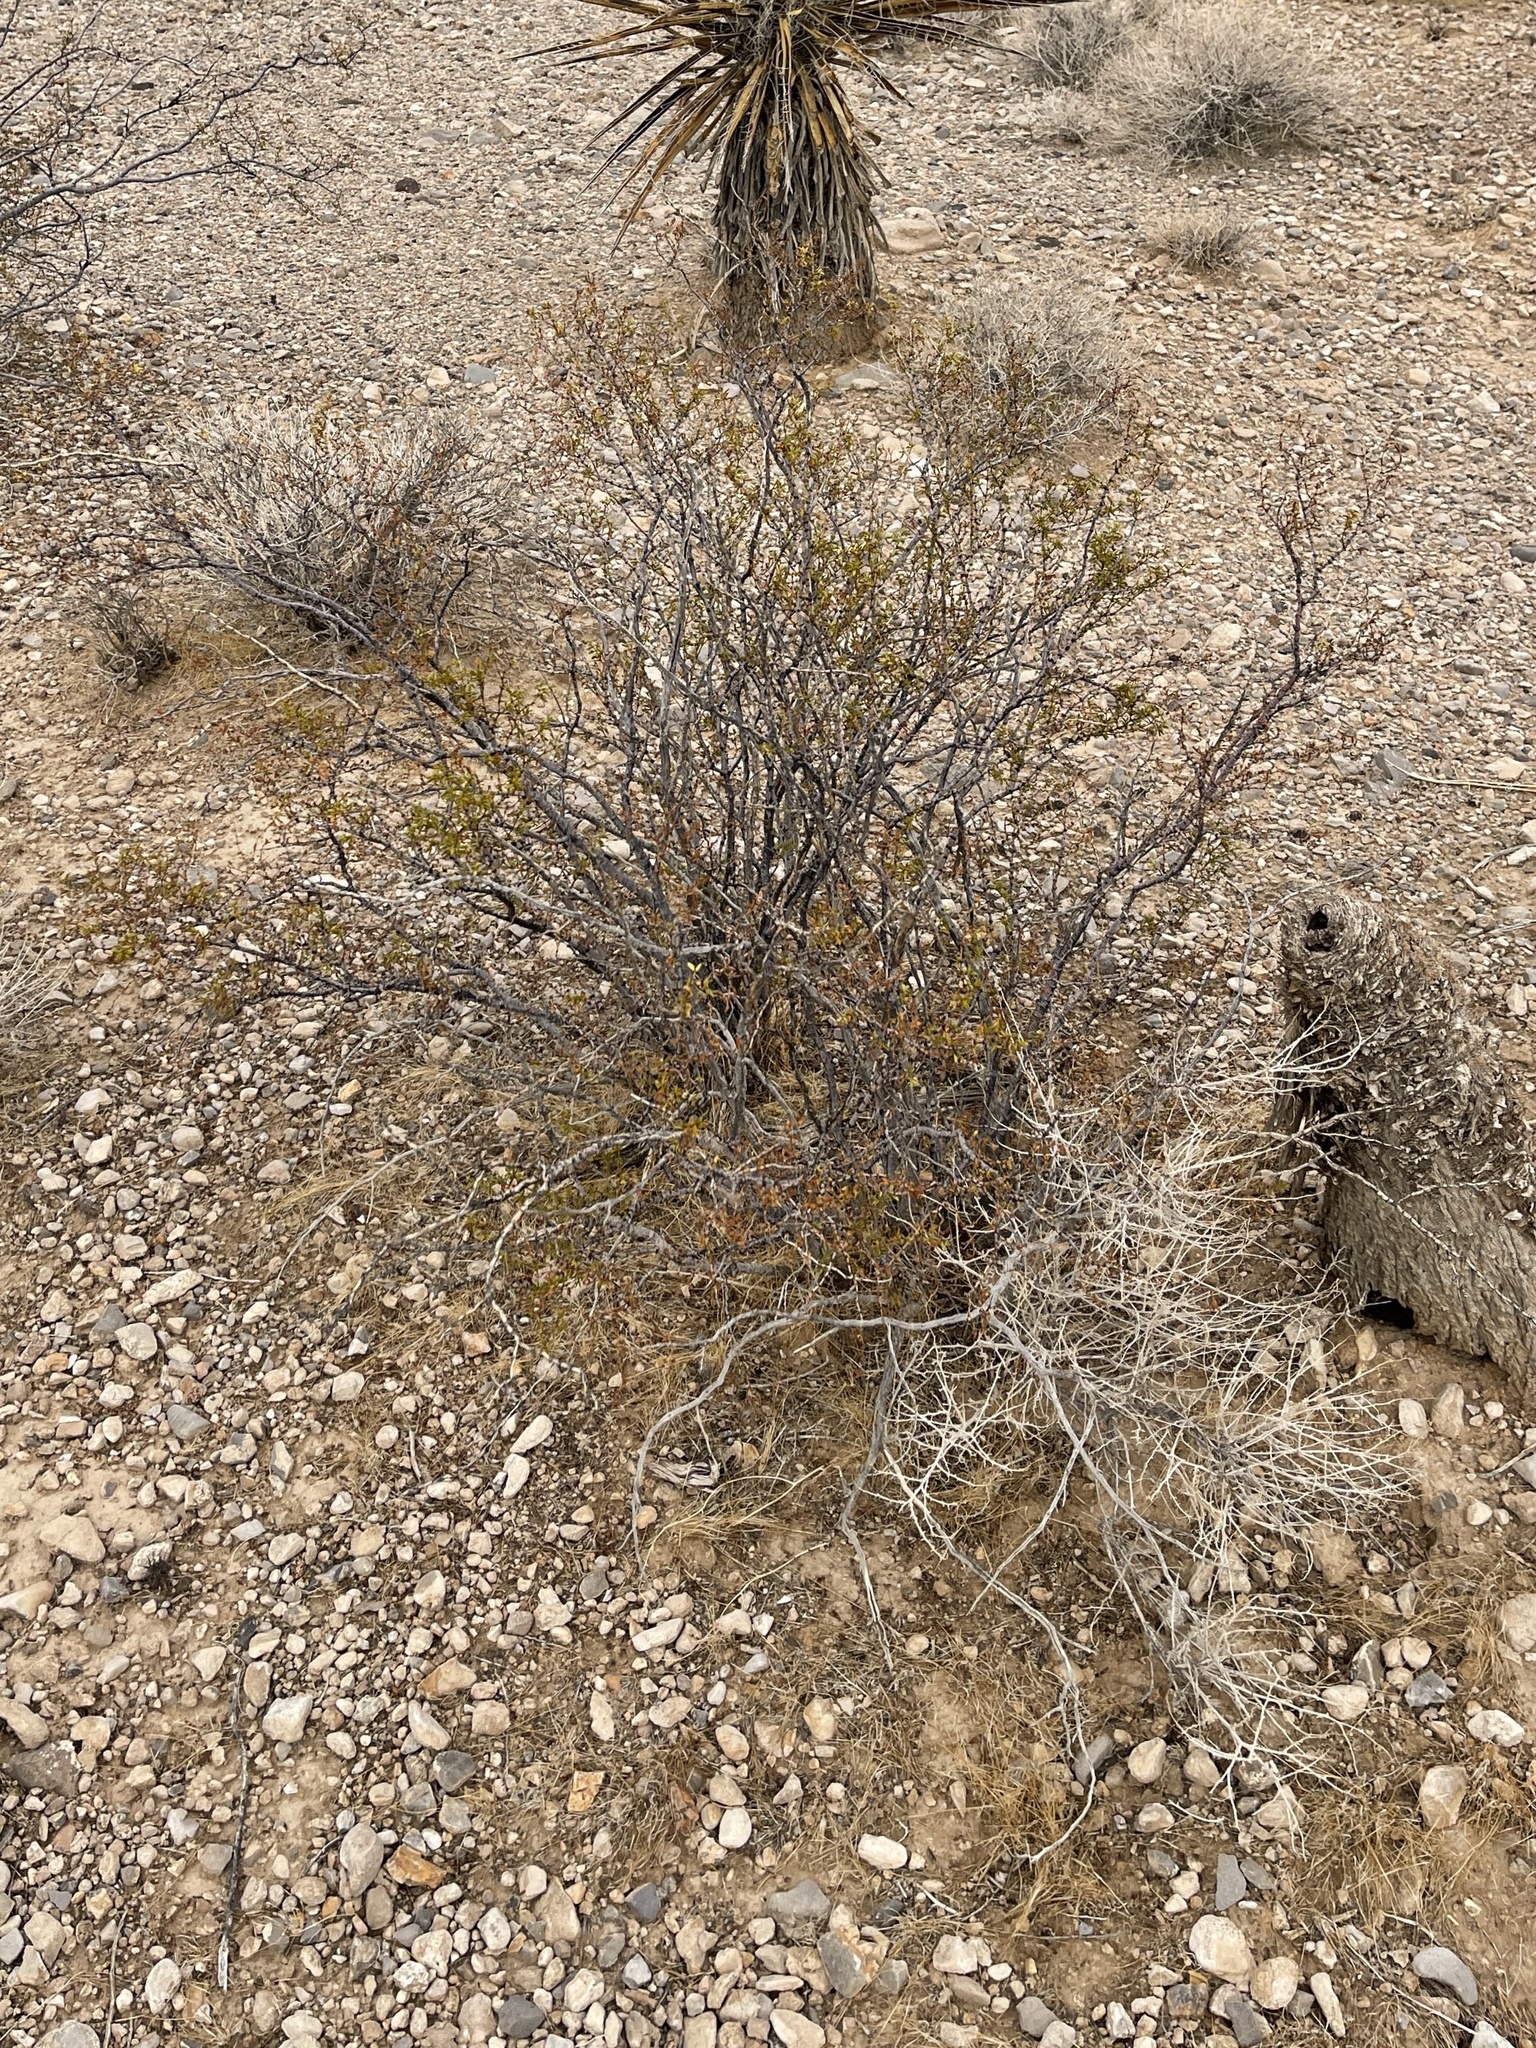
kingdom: Plantae
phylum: Tracheophyta
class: Magnoliopsida
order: Zygophyllales
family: Zygophyllaceae
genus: Larrea
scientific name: Larrea tridentata
